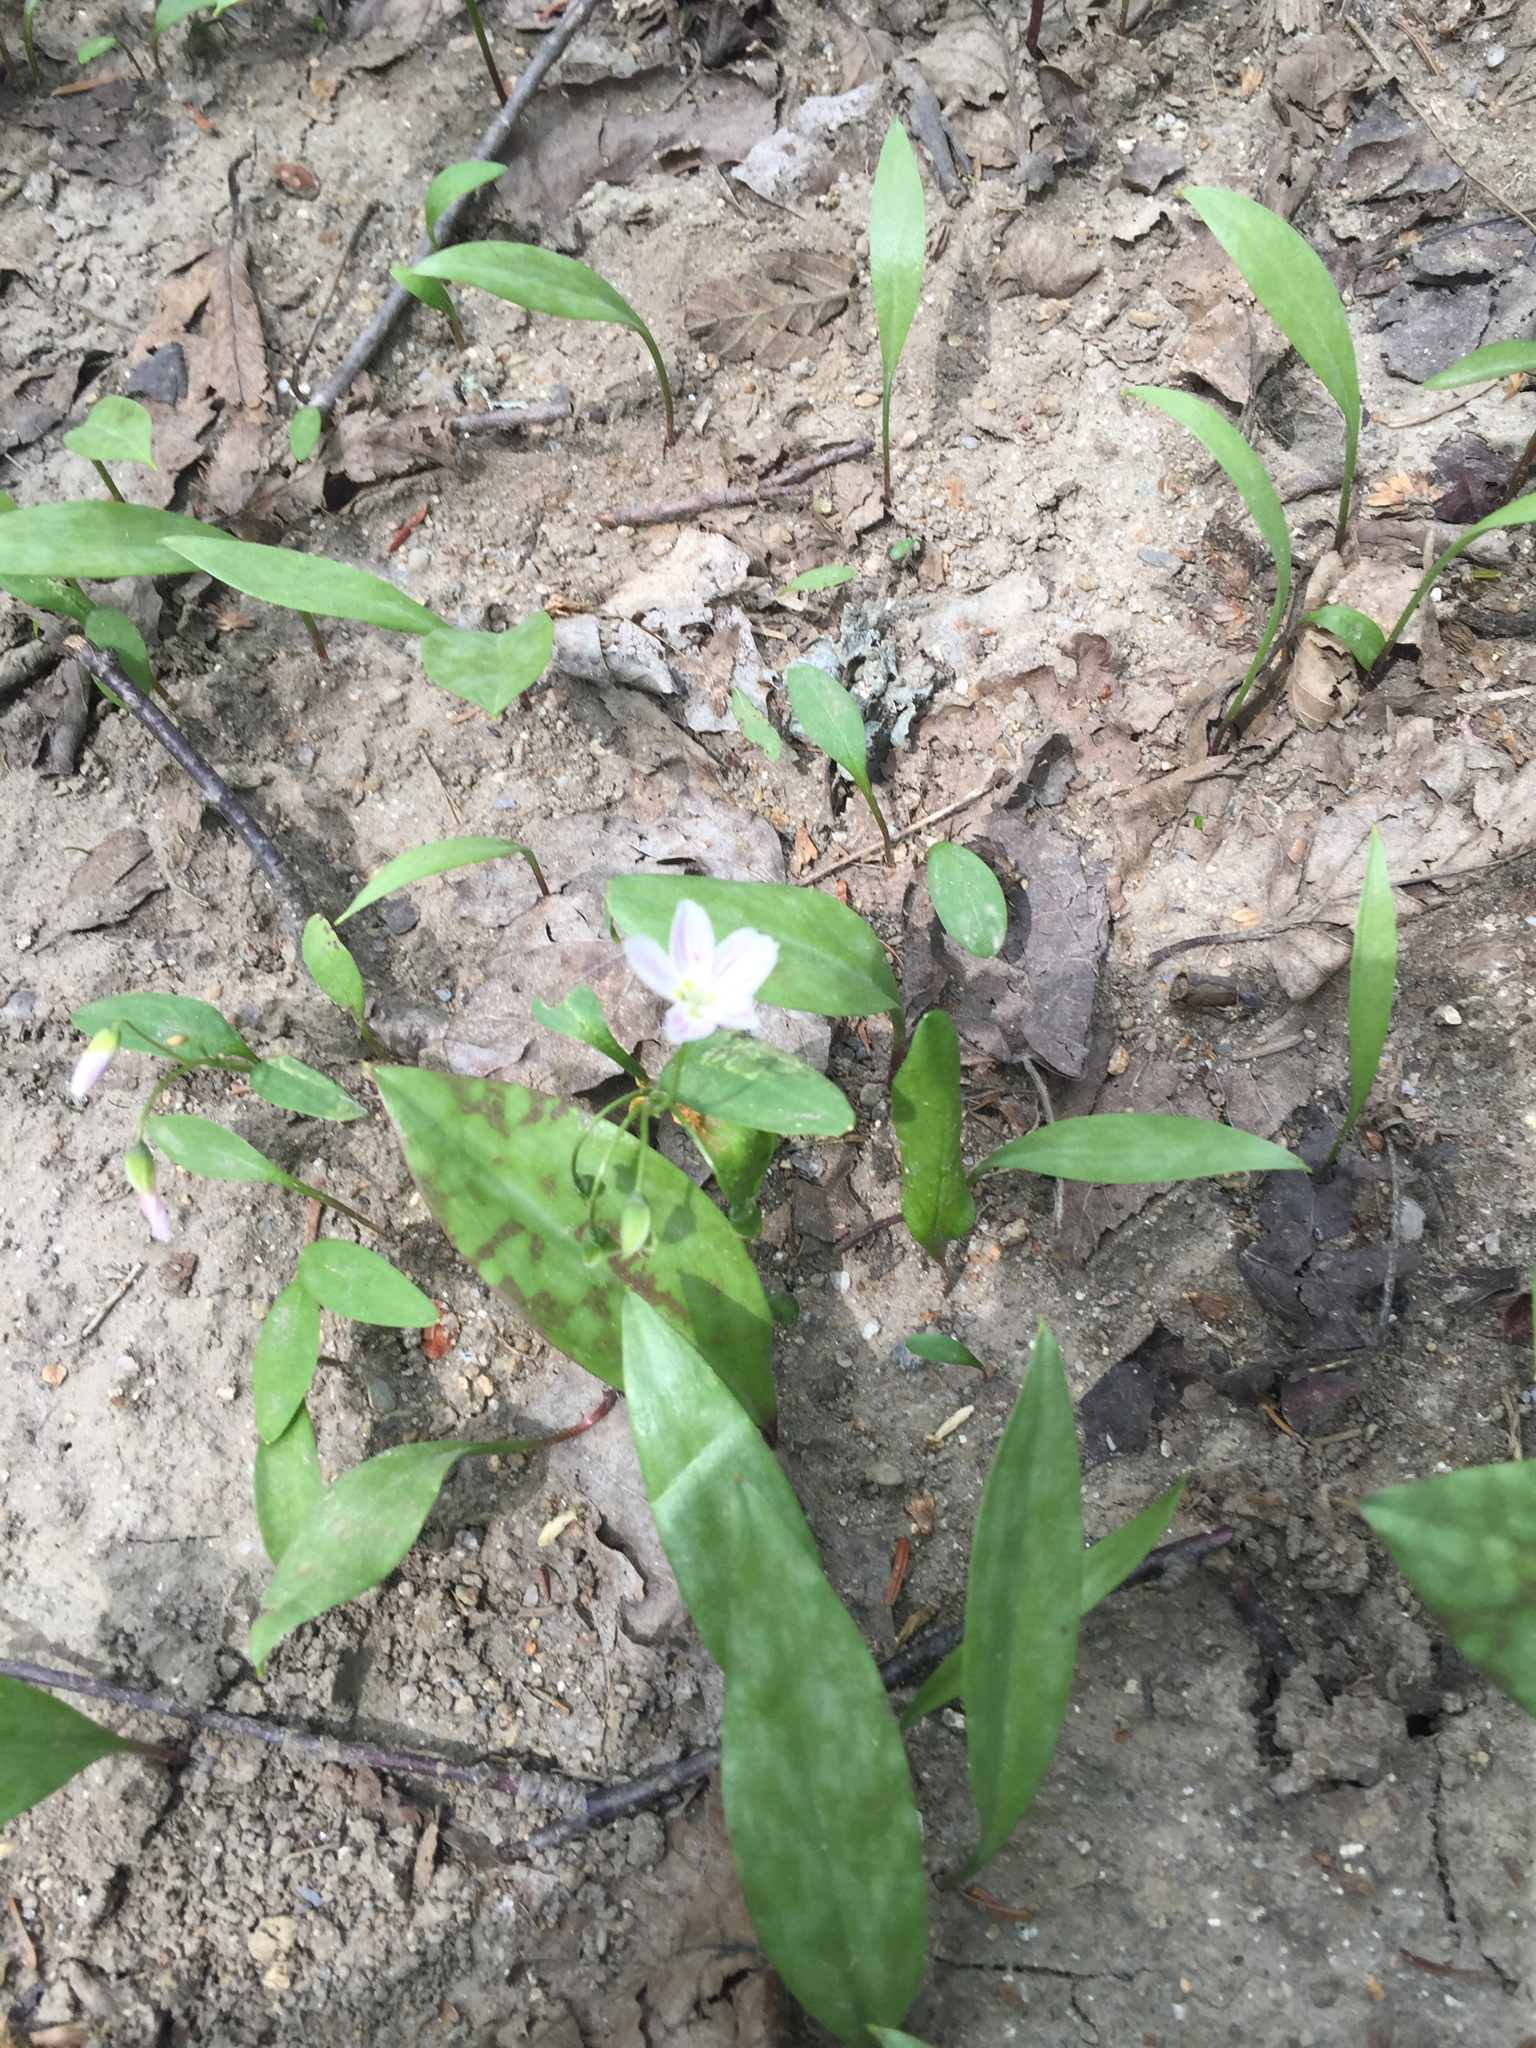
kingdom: Plantae
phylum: Tracheophyta
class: Magnoliopsida
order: Caryophyllales
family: Montiaceae
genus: Claytonia
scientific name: Claytonia caroliniana
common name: Carolina spring beauty
